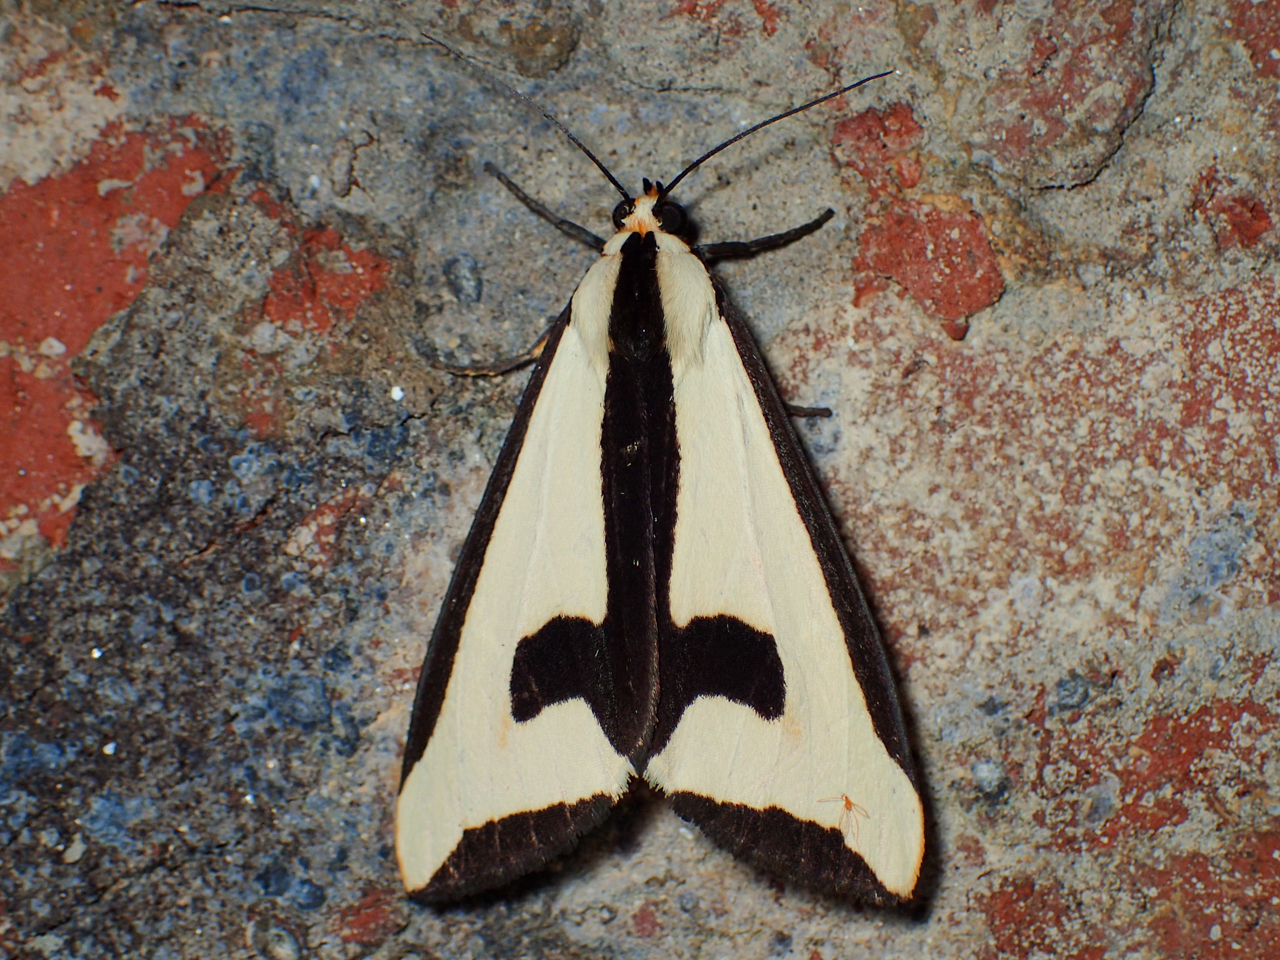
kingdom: Animalia
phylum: Arthropoda
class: Insecta
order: Lepidoptera
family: Erebidae
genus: Haploa
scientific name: Haploa clymene
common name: Clymene moth
